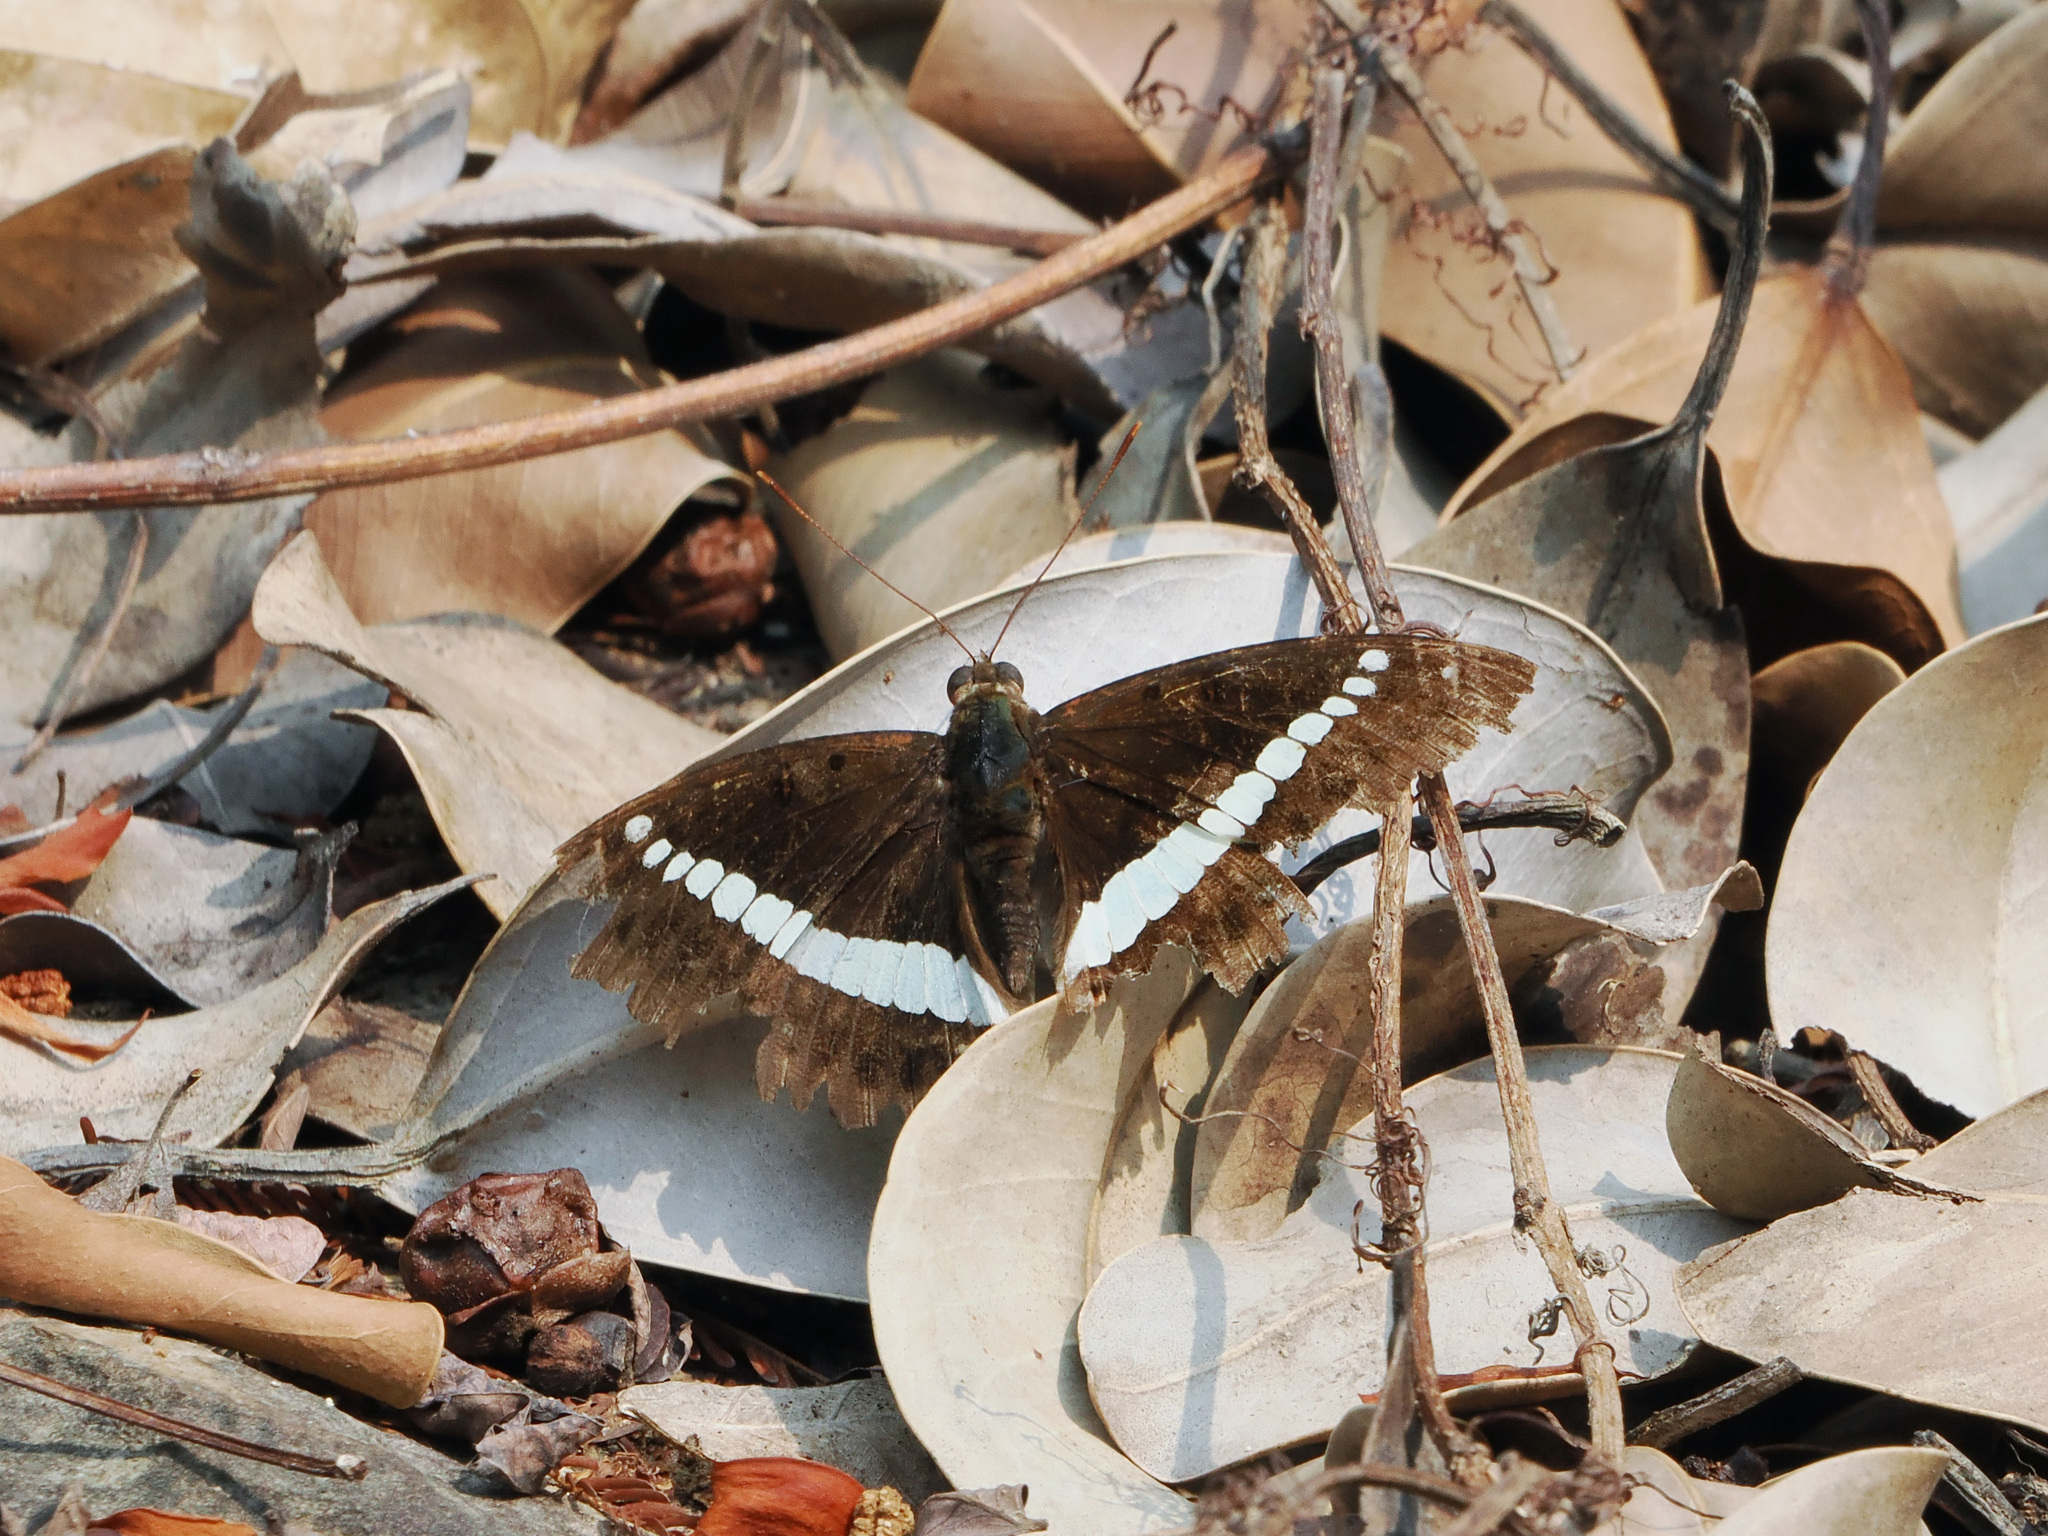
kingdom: Animalia
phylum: Arthropoda
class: Insecta
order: Lepidoptera
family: Nymphalidae
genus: Euthalia
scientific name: Euthalia recta
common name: Redtail marquis
